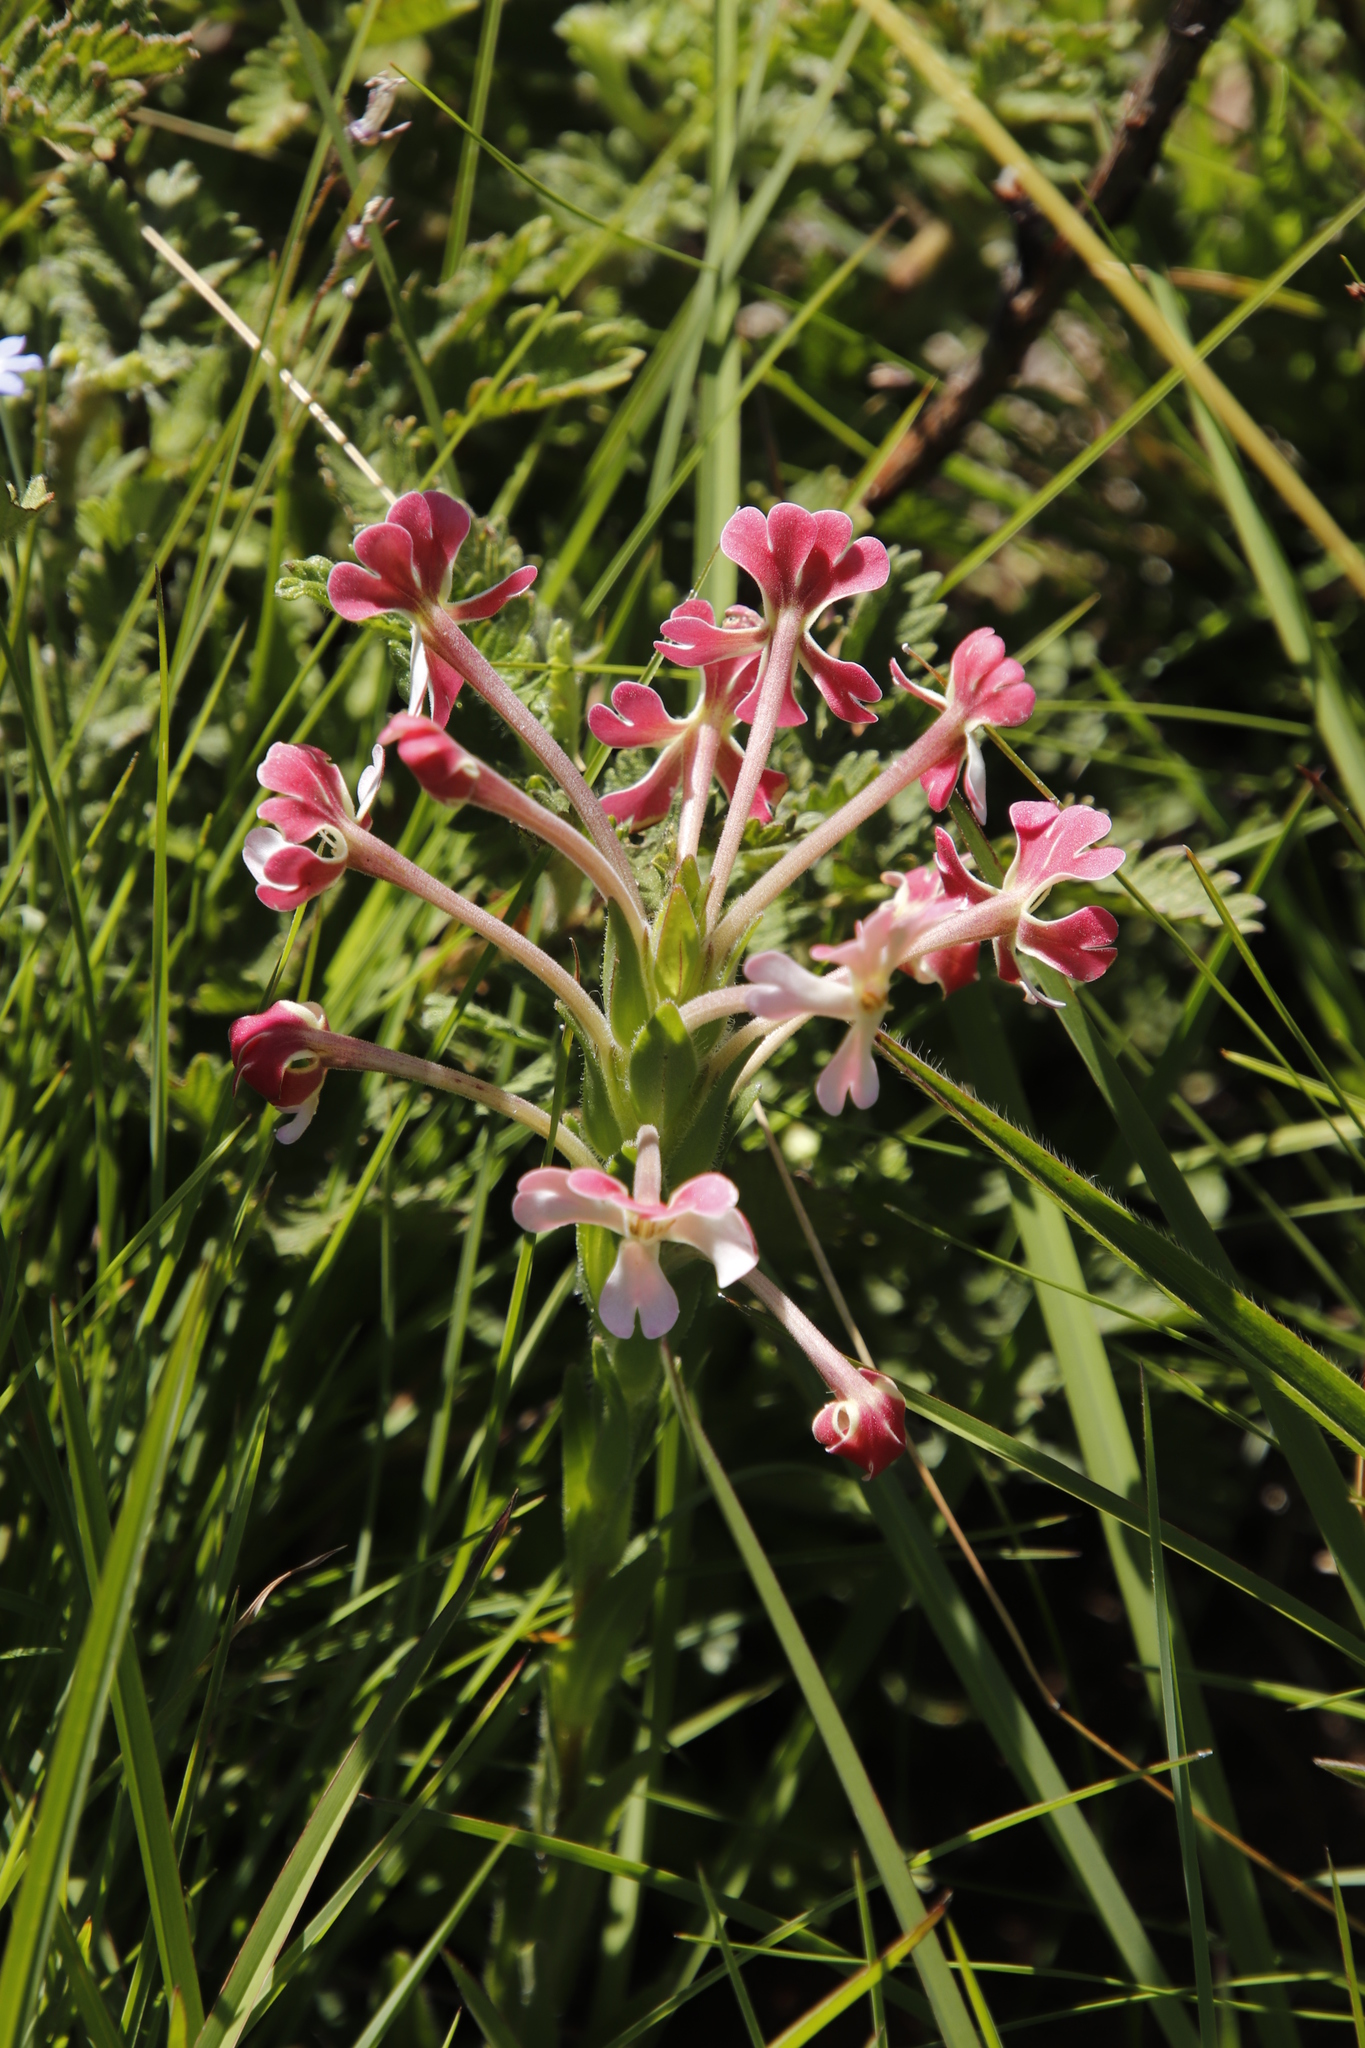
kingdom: Plantae
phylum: Tracheophyta
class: Magnoliopsida
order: Lamiales
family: Scrophulariaceae
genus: Zaluzianskya
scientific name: Zaluzianskya microsiphon
